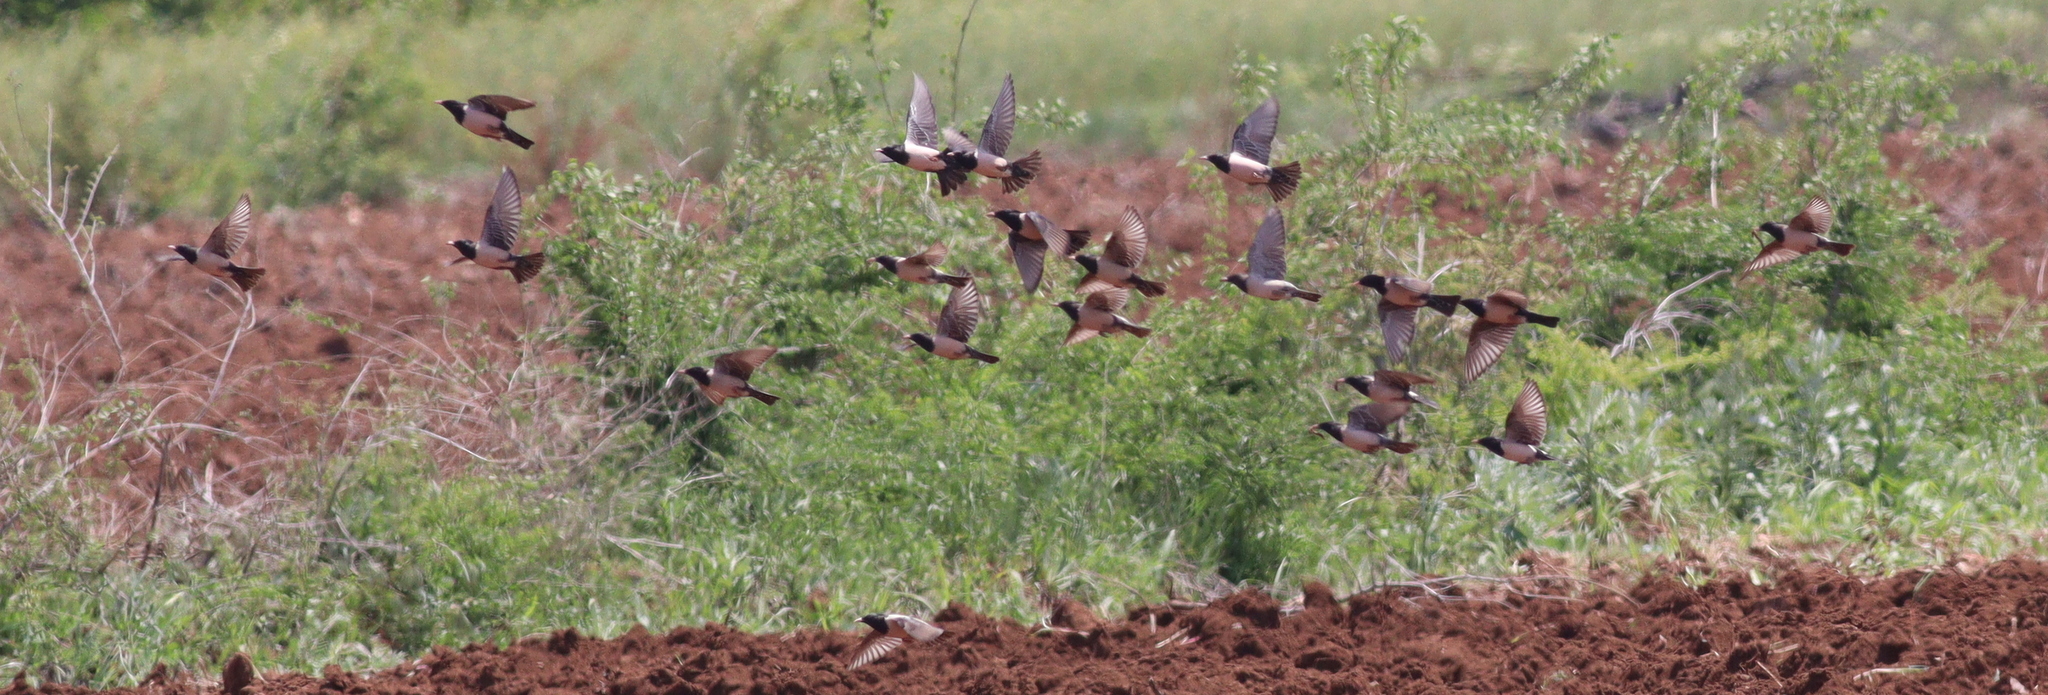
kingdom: Animalia
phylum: Chordata
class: Aves
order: Passeriformes
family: Sturnidae
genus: Pastor
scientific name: Pastor roseus
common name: Rosy starling
